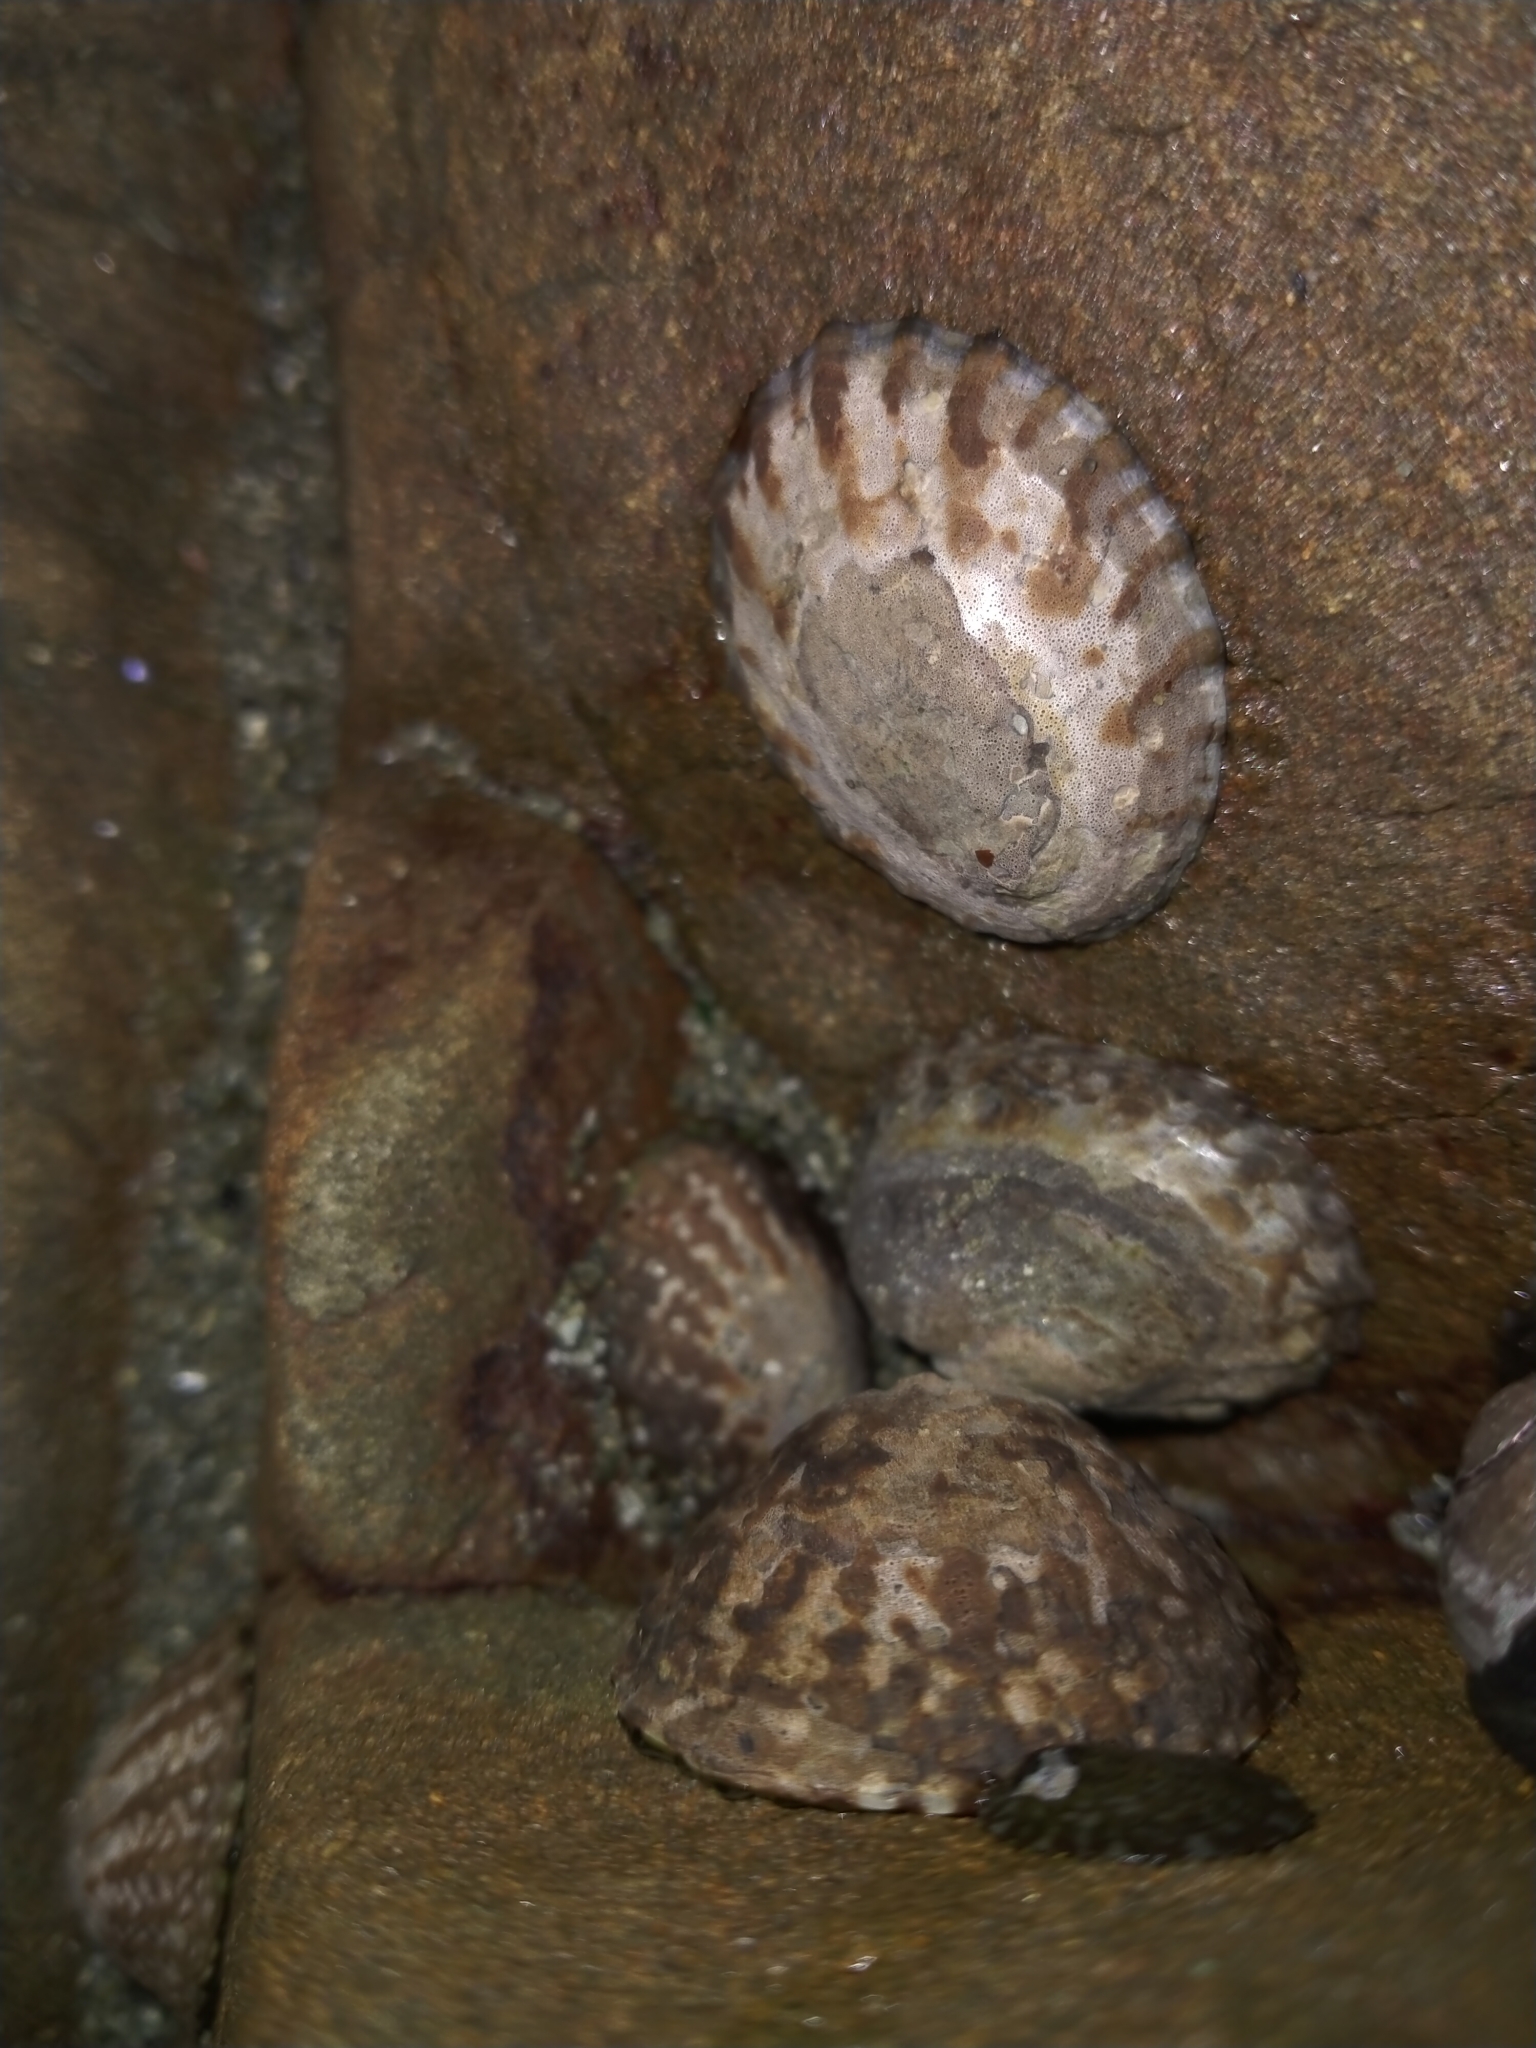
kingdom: Animalia
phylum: Mollusca
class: Gastropoda
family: Nacellidae
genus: Cellana
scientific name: Cellana radians
